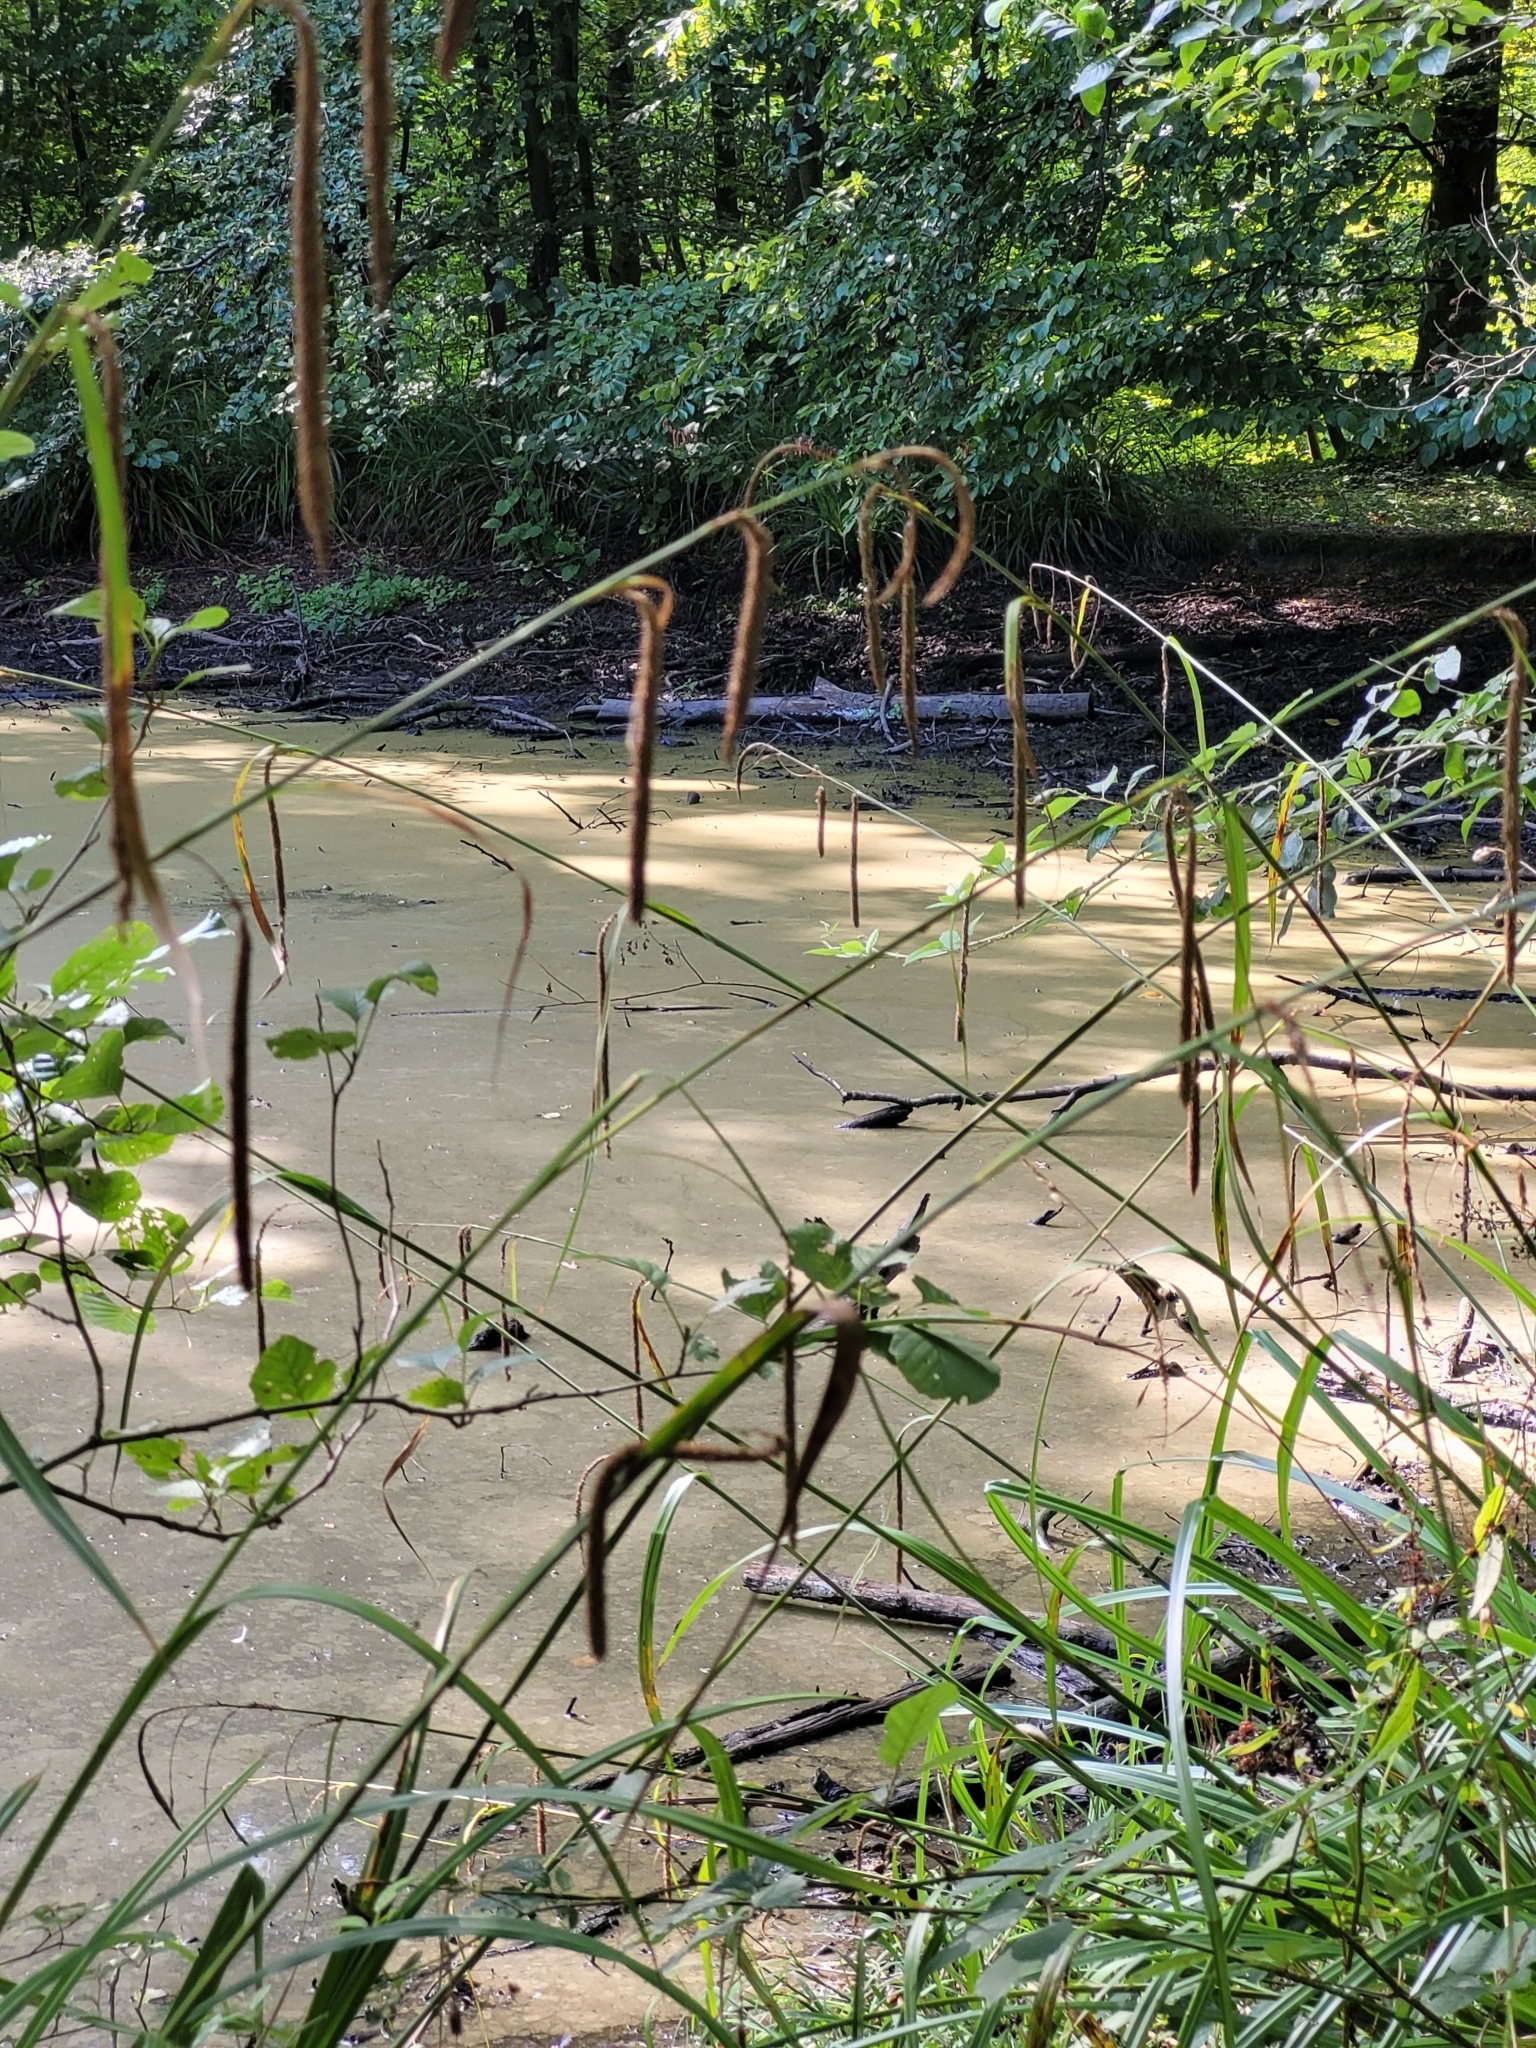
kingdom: Plantae
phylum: Tracheophyta
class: Liliopsida
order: Poales
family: Cyperaceae
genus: Carex
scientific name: Carex pendula
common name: Pendulous sedge
